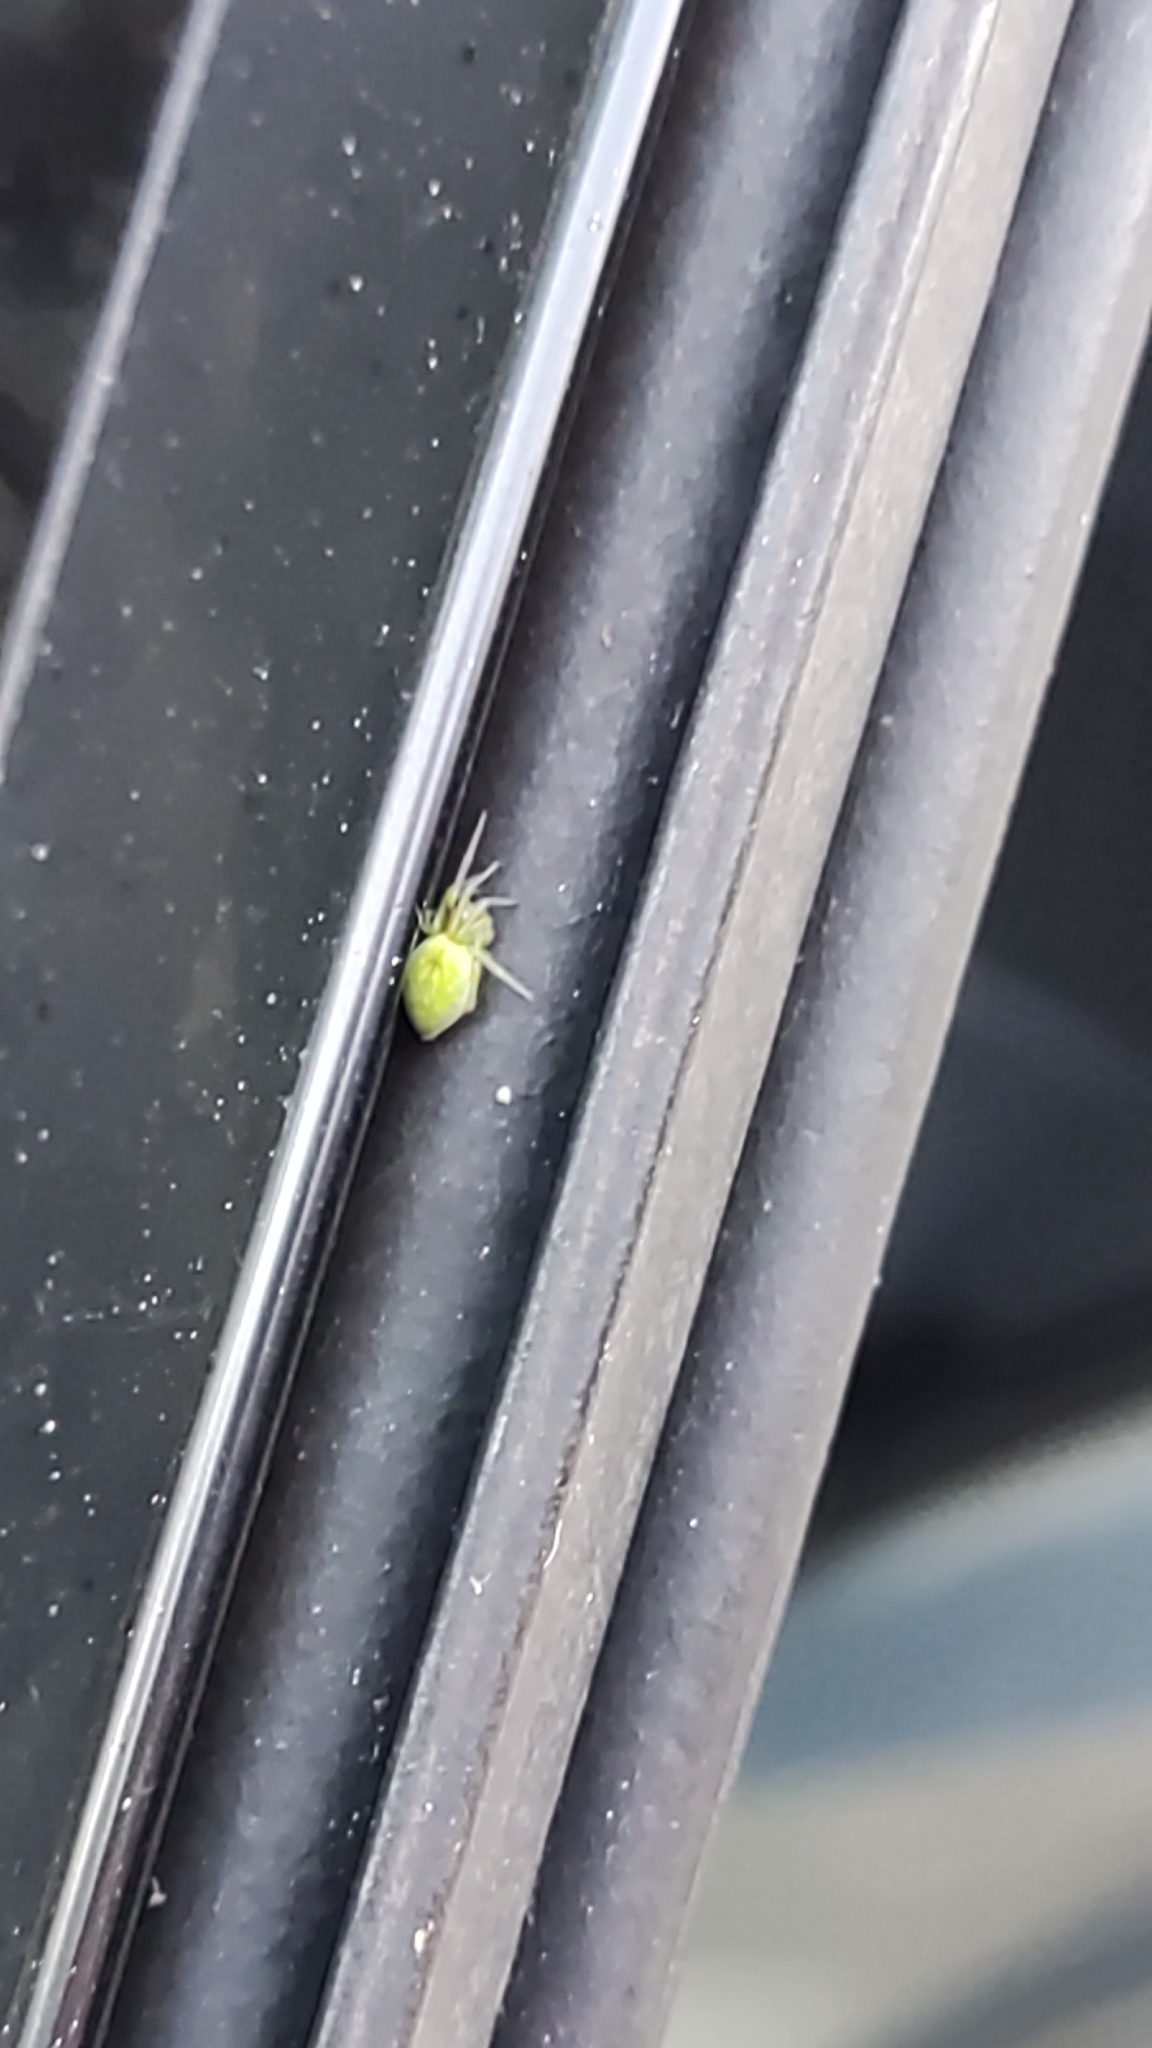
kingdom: Animalia
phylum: Arthropoda
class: Arachnida
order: Araneae
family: Dictynidae
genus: Nigma
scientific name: Nigma walckenaeri
